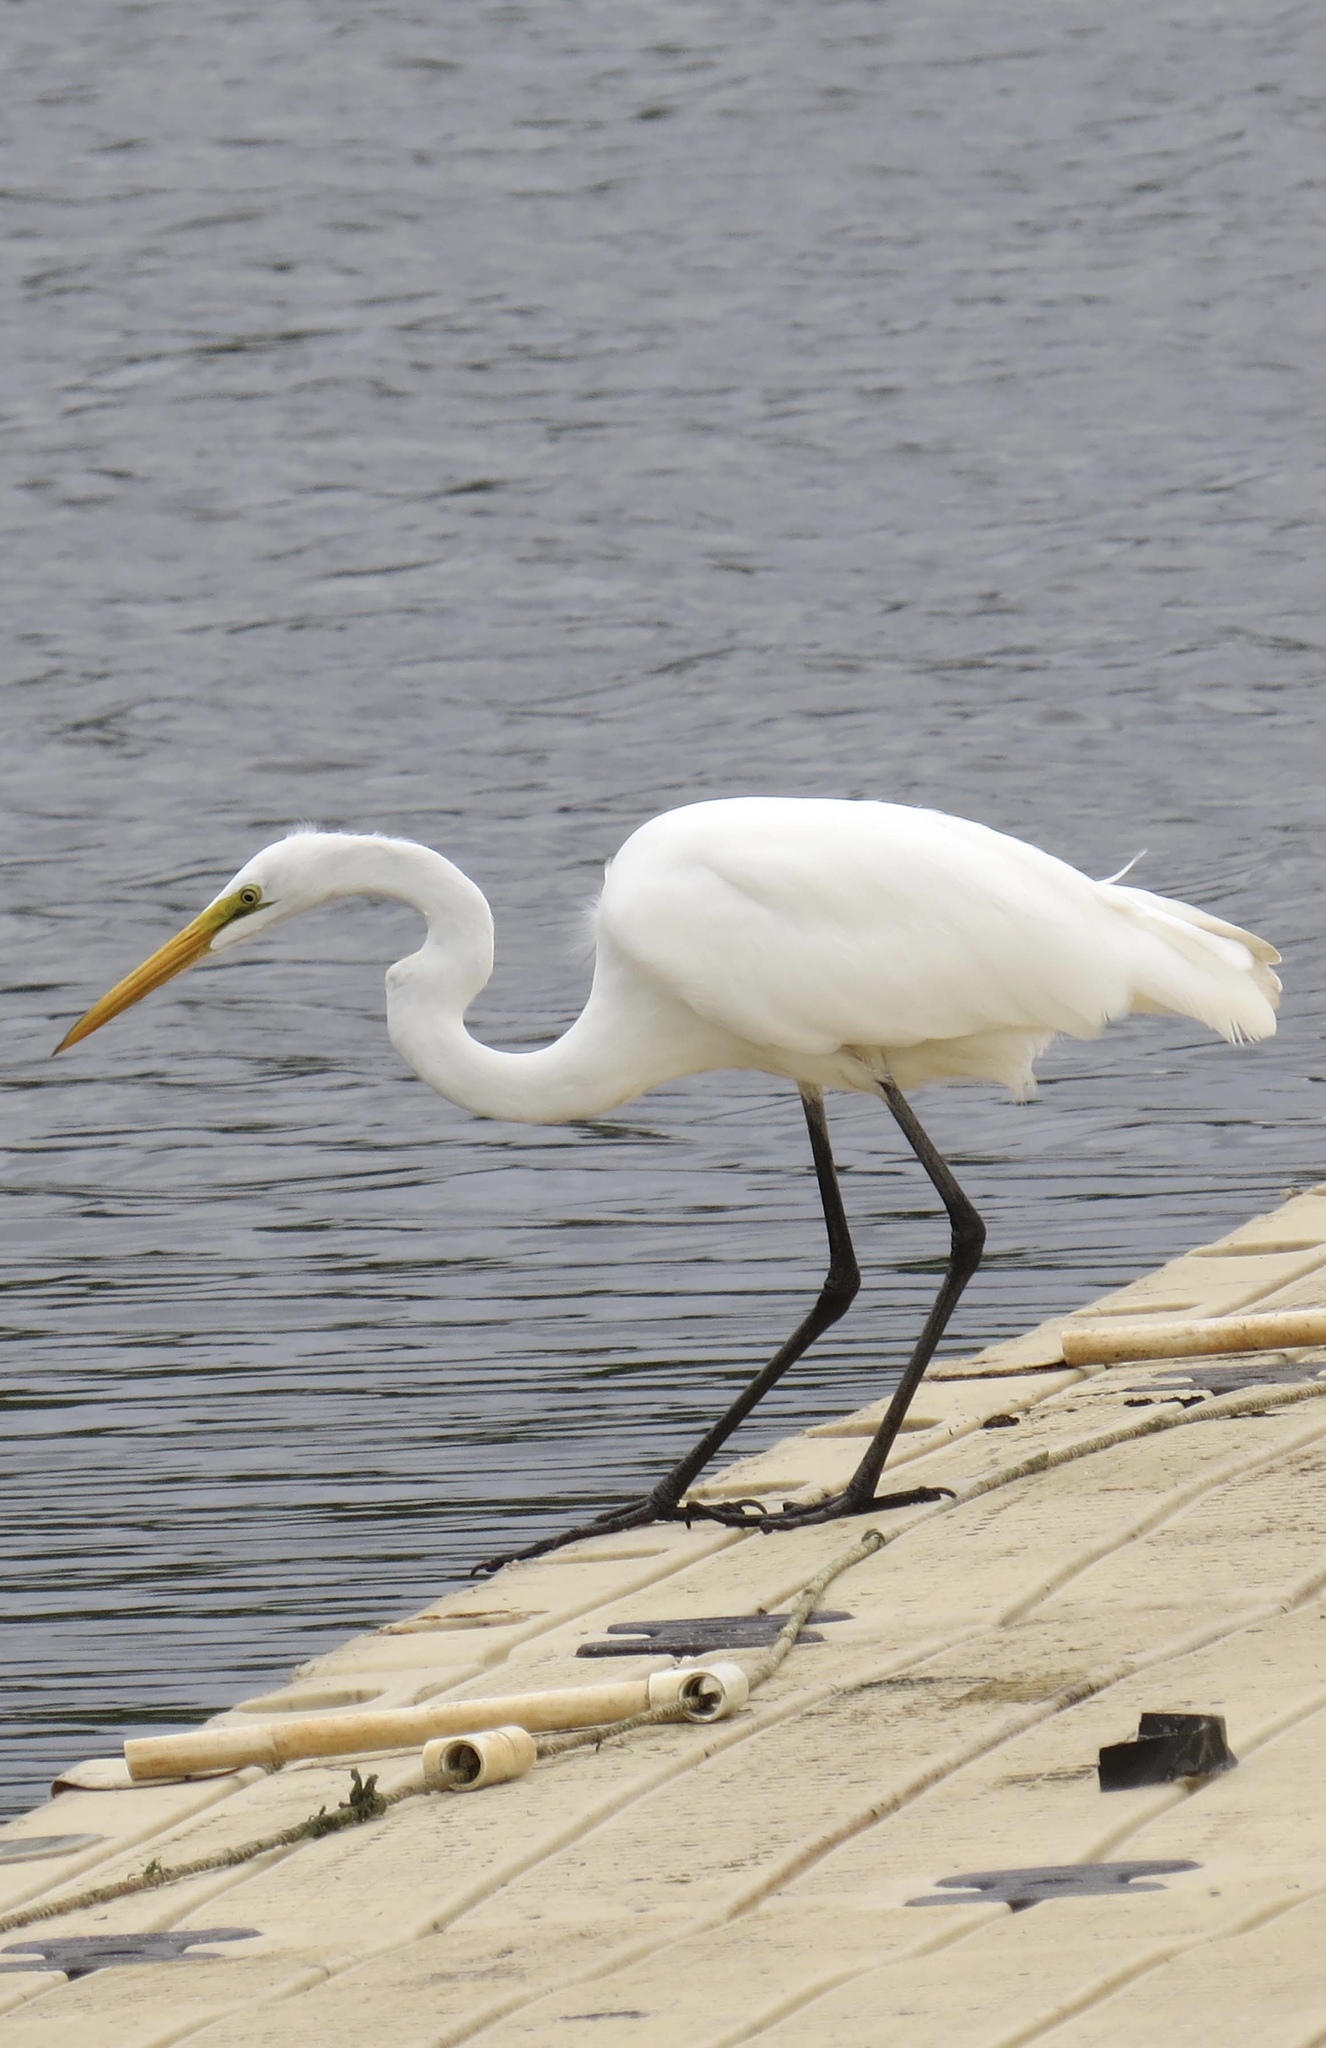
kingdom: Animalia
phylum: Chordata
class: Aves
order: Pelecaniformes
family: Ardeidae
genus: Ardea
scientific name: Ardea alba
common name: Great egret
